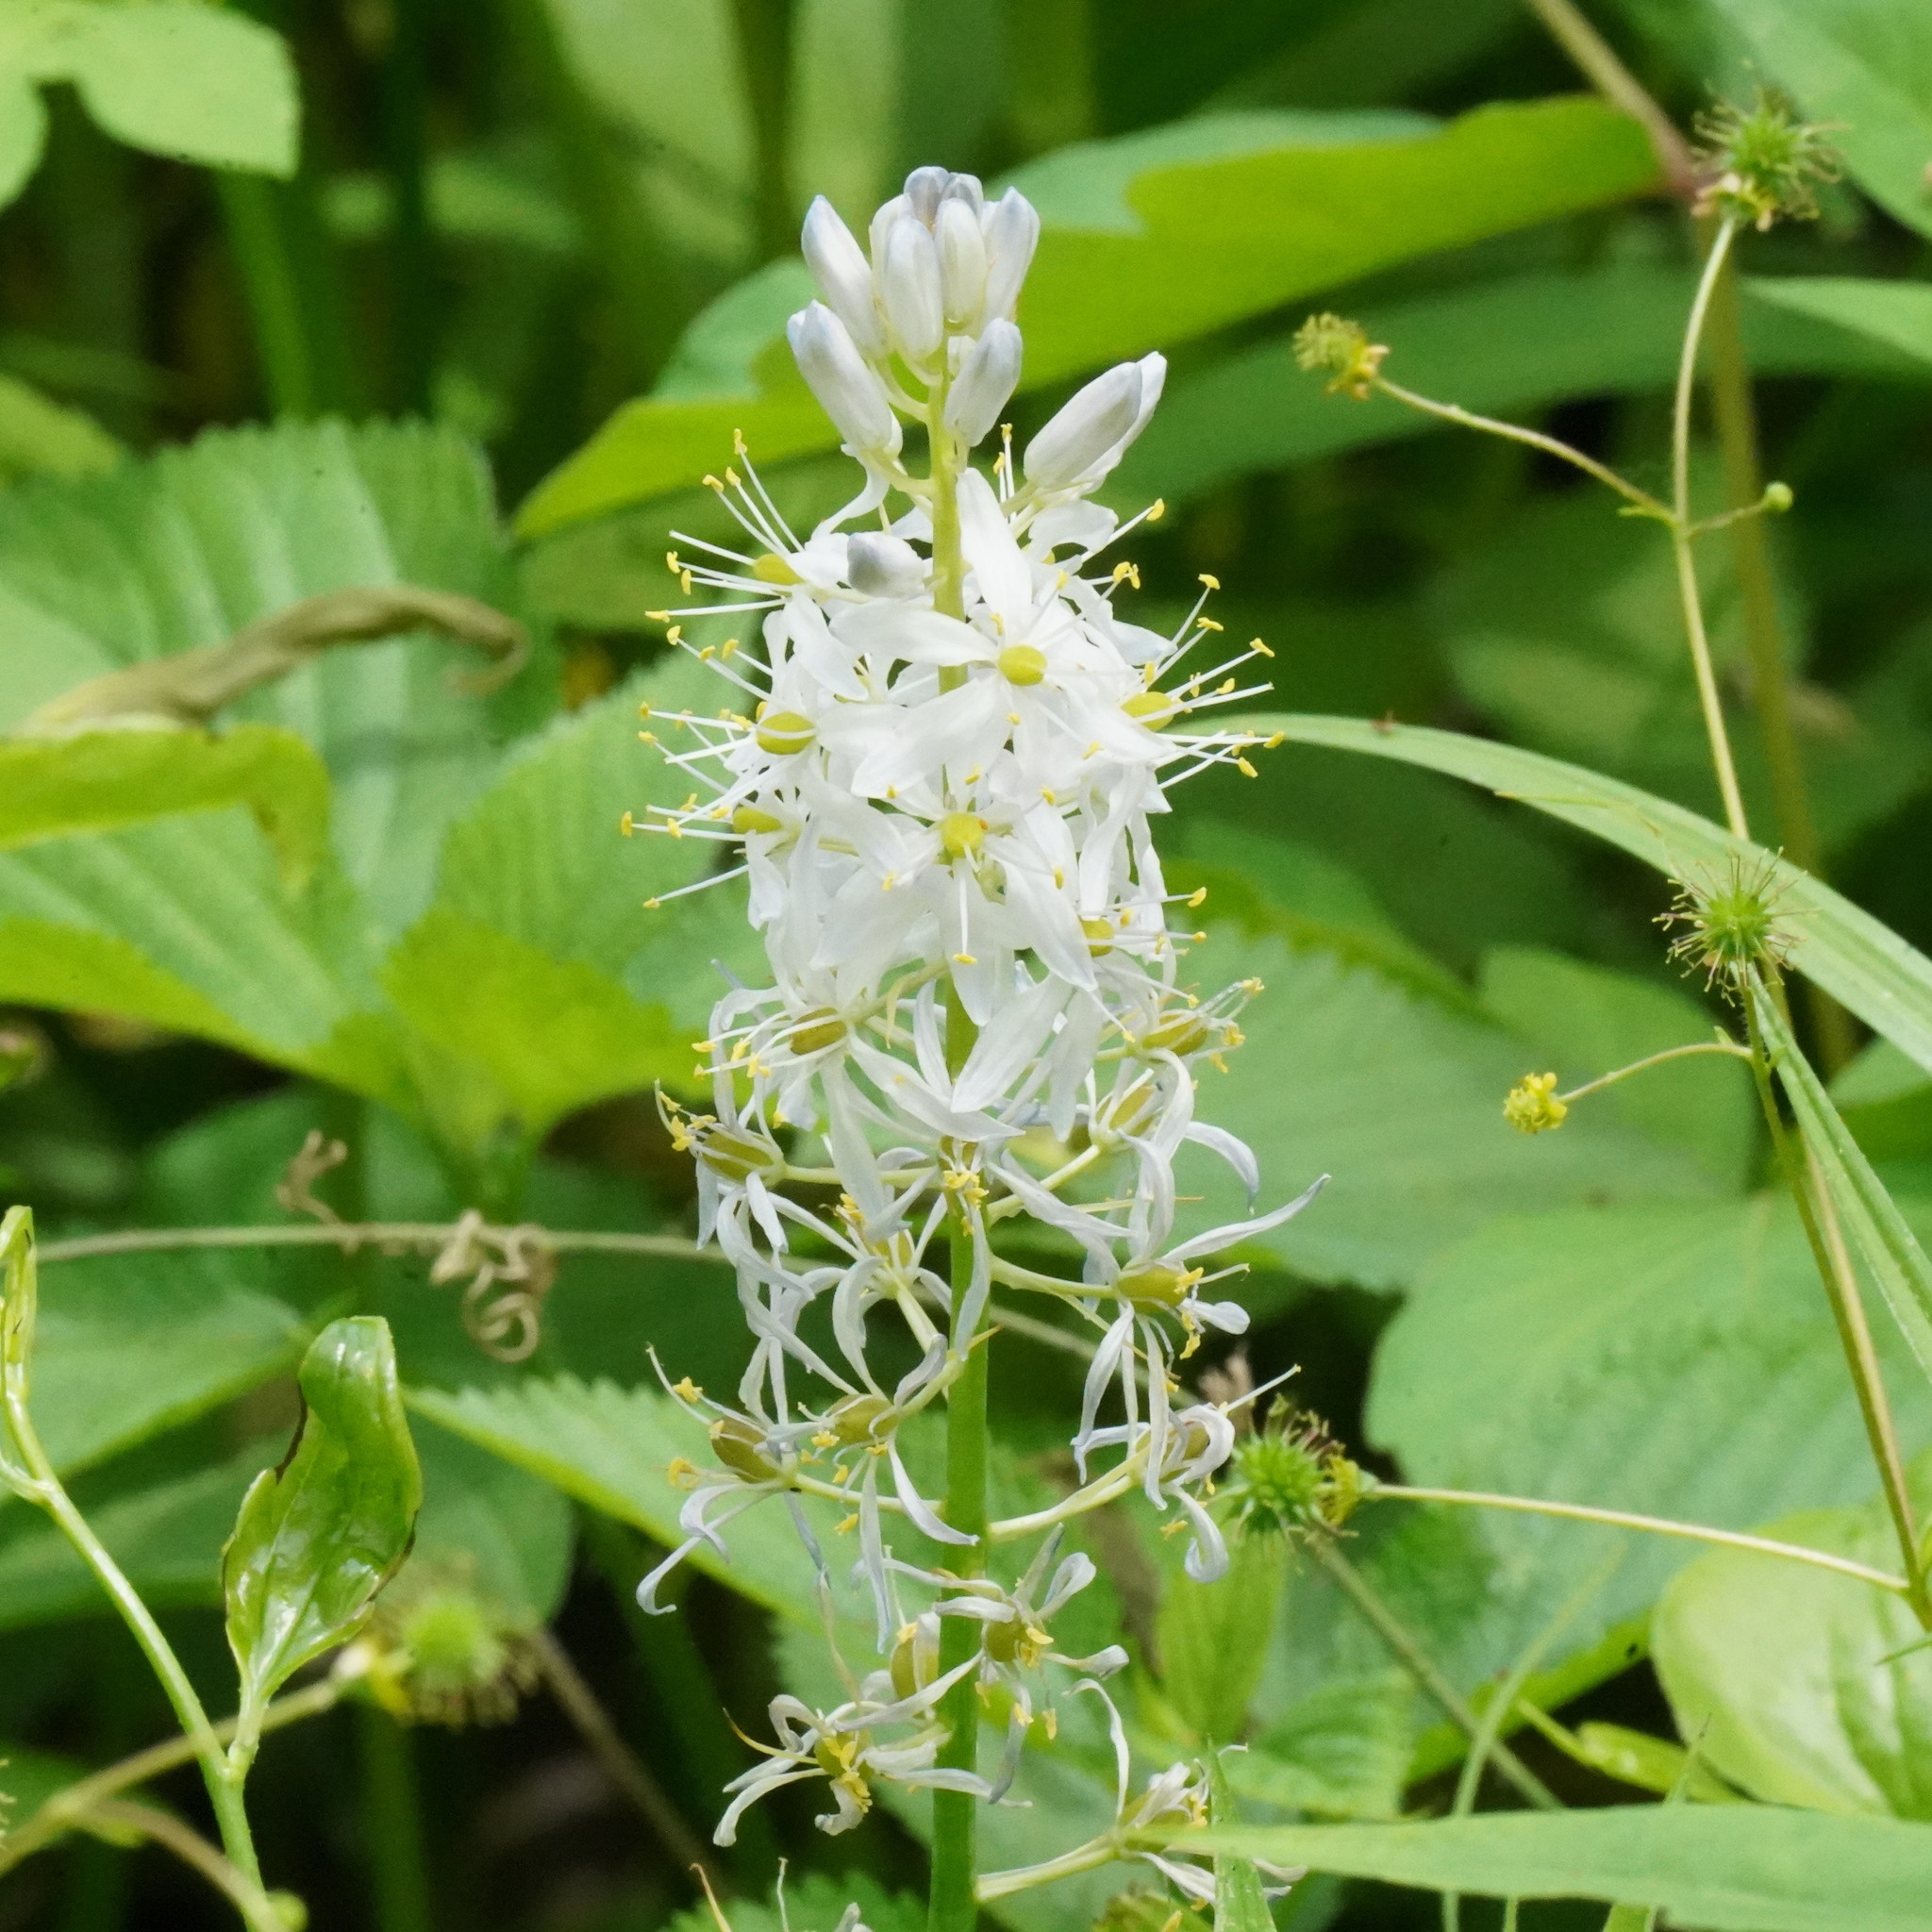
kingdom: Plantae
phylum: Tracheophyta
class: Liliopsida
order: Asparagales
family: Asparagaceae
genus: Camassia
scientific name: Camassia scilloides
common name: Wild hyacinth
